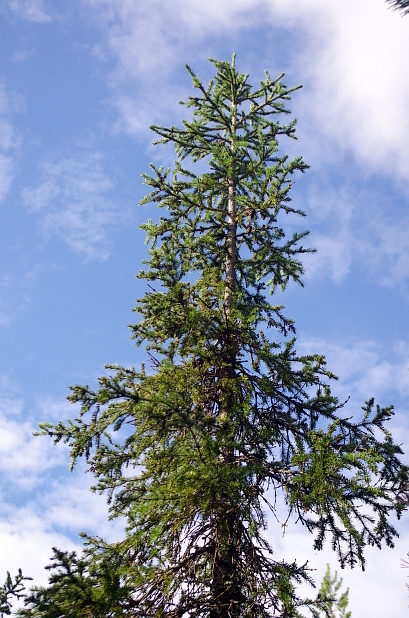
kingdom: Plantae
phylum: Tracheophyta
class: Pinopsida
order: Pinales
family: Pinaceae
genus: Picea
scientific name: Picea fennica
